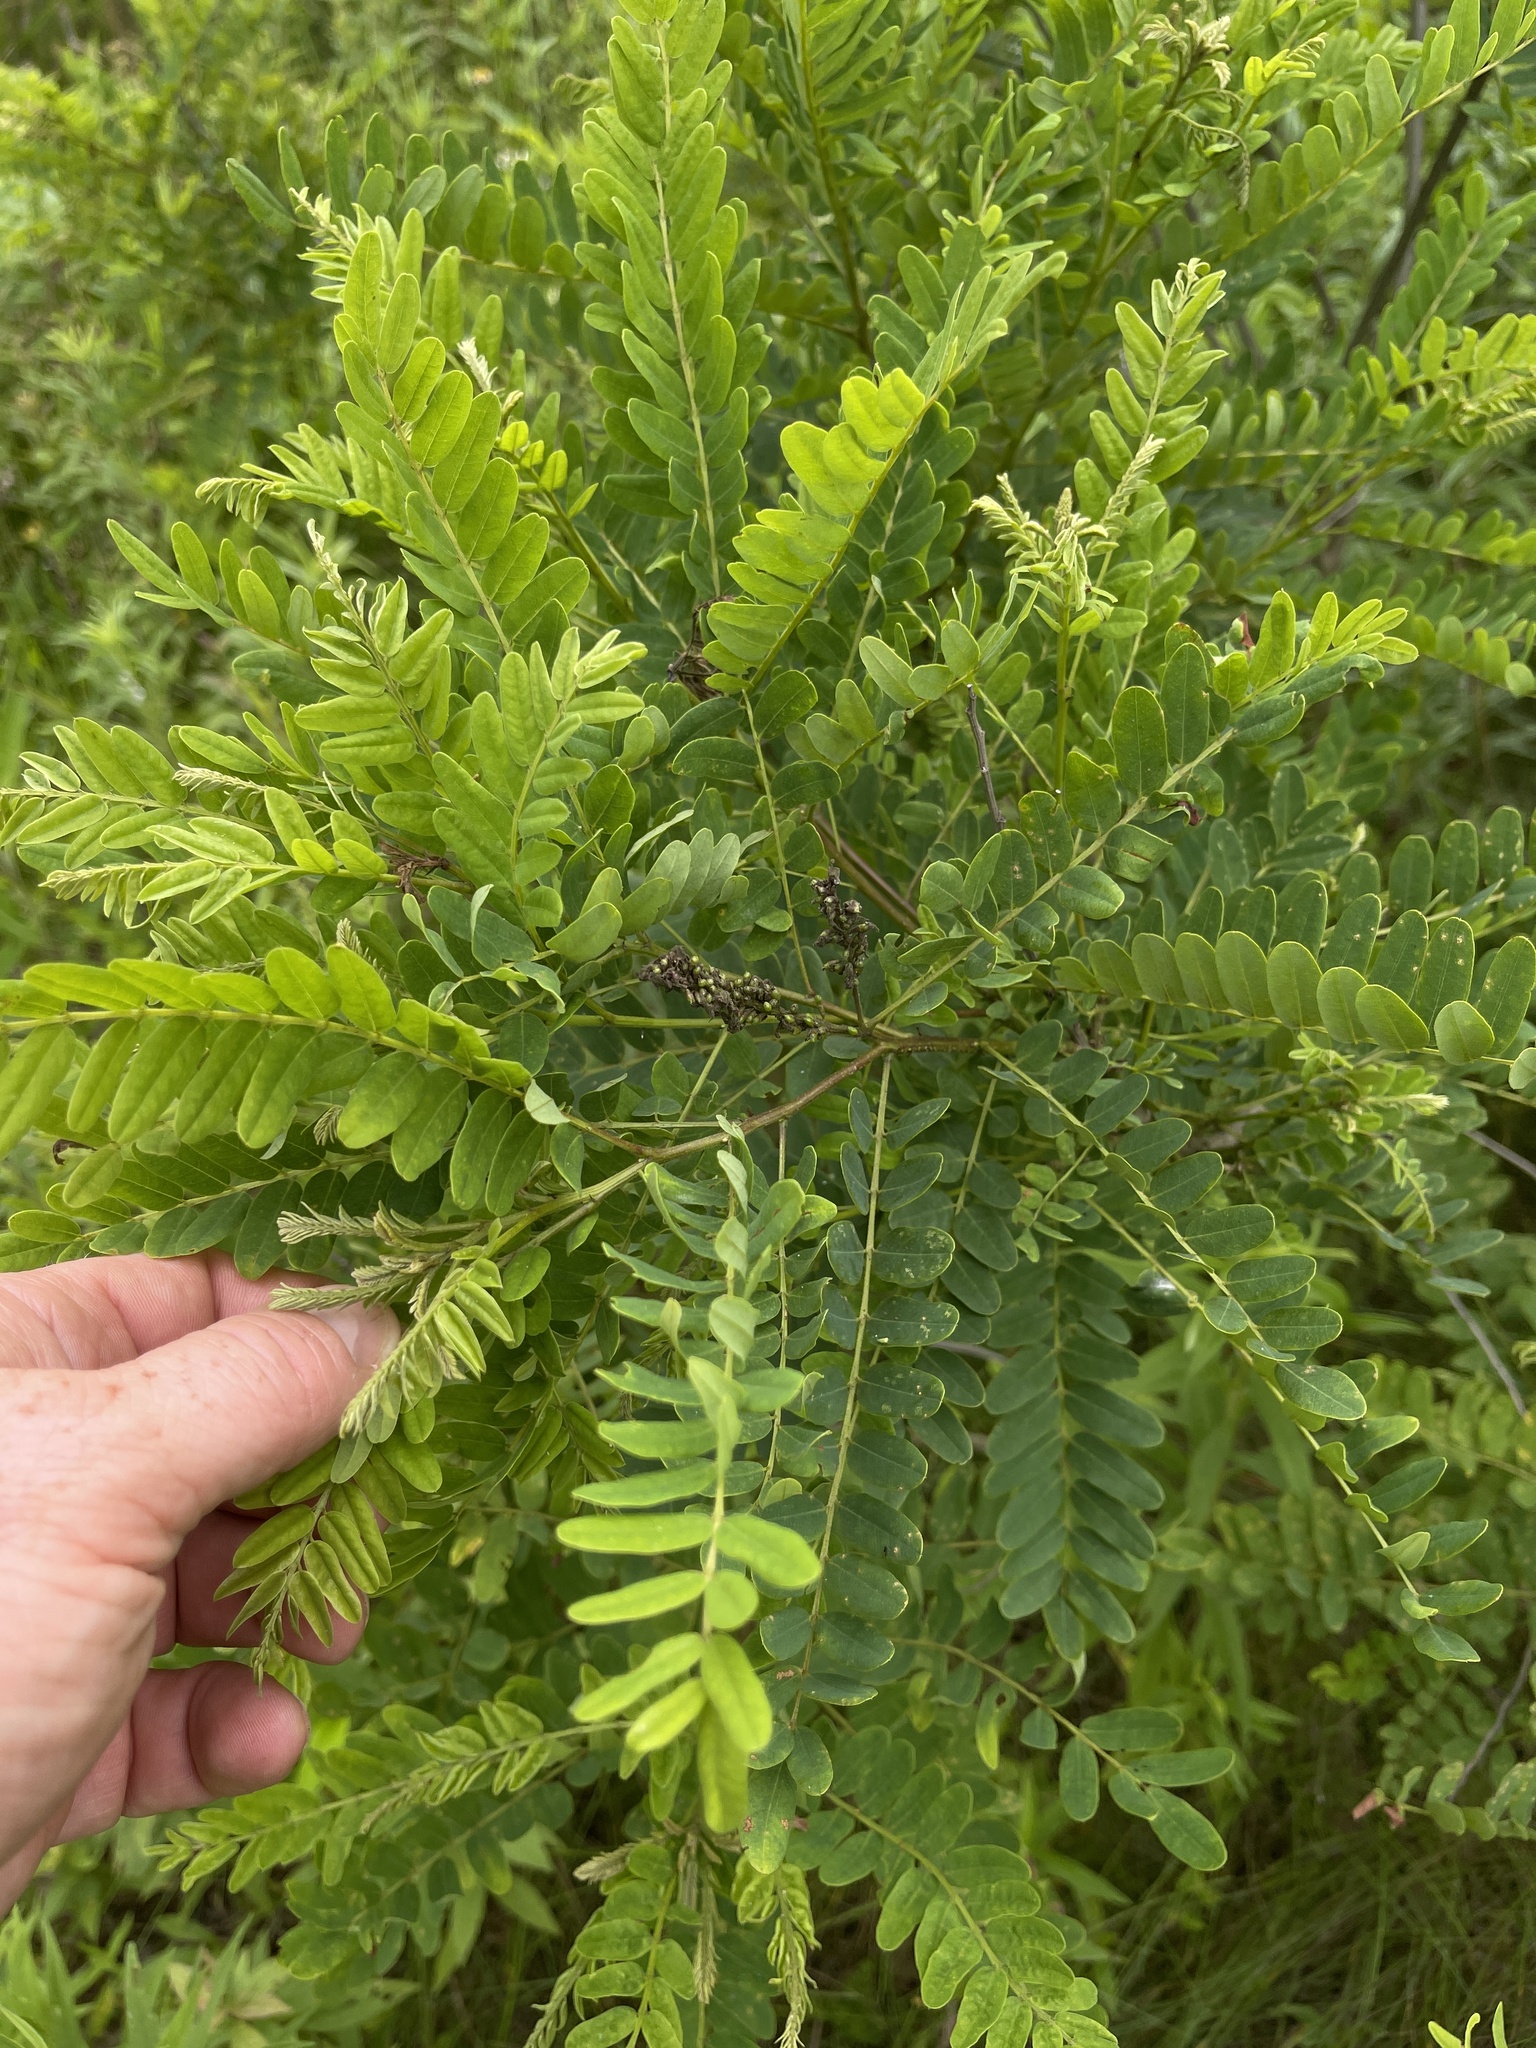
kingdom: Plantae
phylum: Tracheophyta
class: Magnoliopsida
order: Fabales
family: Fabaceae
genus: Amorpha
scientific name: Amorpha fruticosa
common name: False indigo
